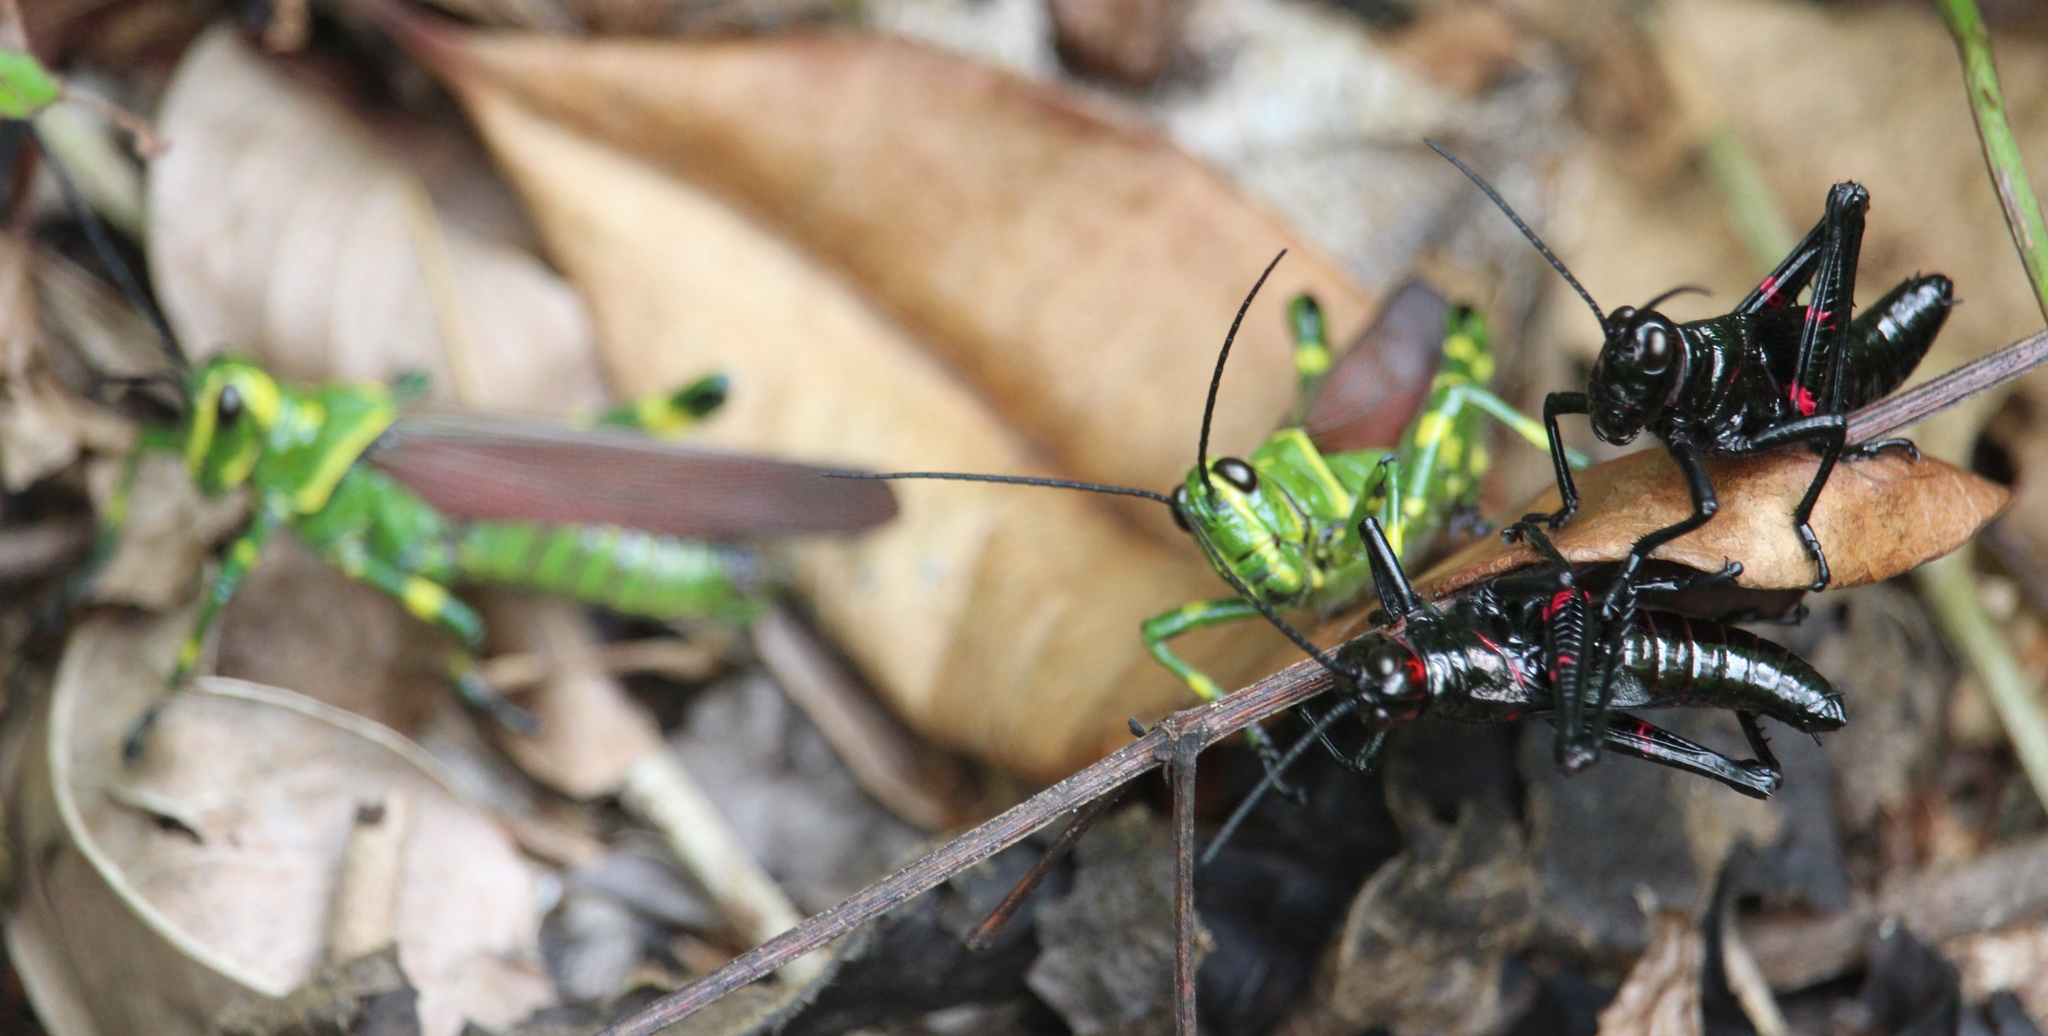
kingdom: Animalia
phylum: Arthropoda
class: Insecta
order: Orthoptera
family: Romaleidae
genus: Chromacris
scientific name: Chromacris miles
